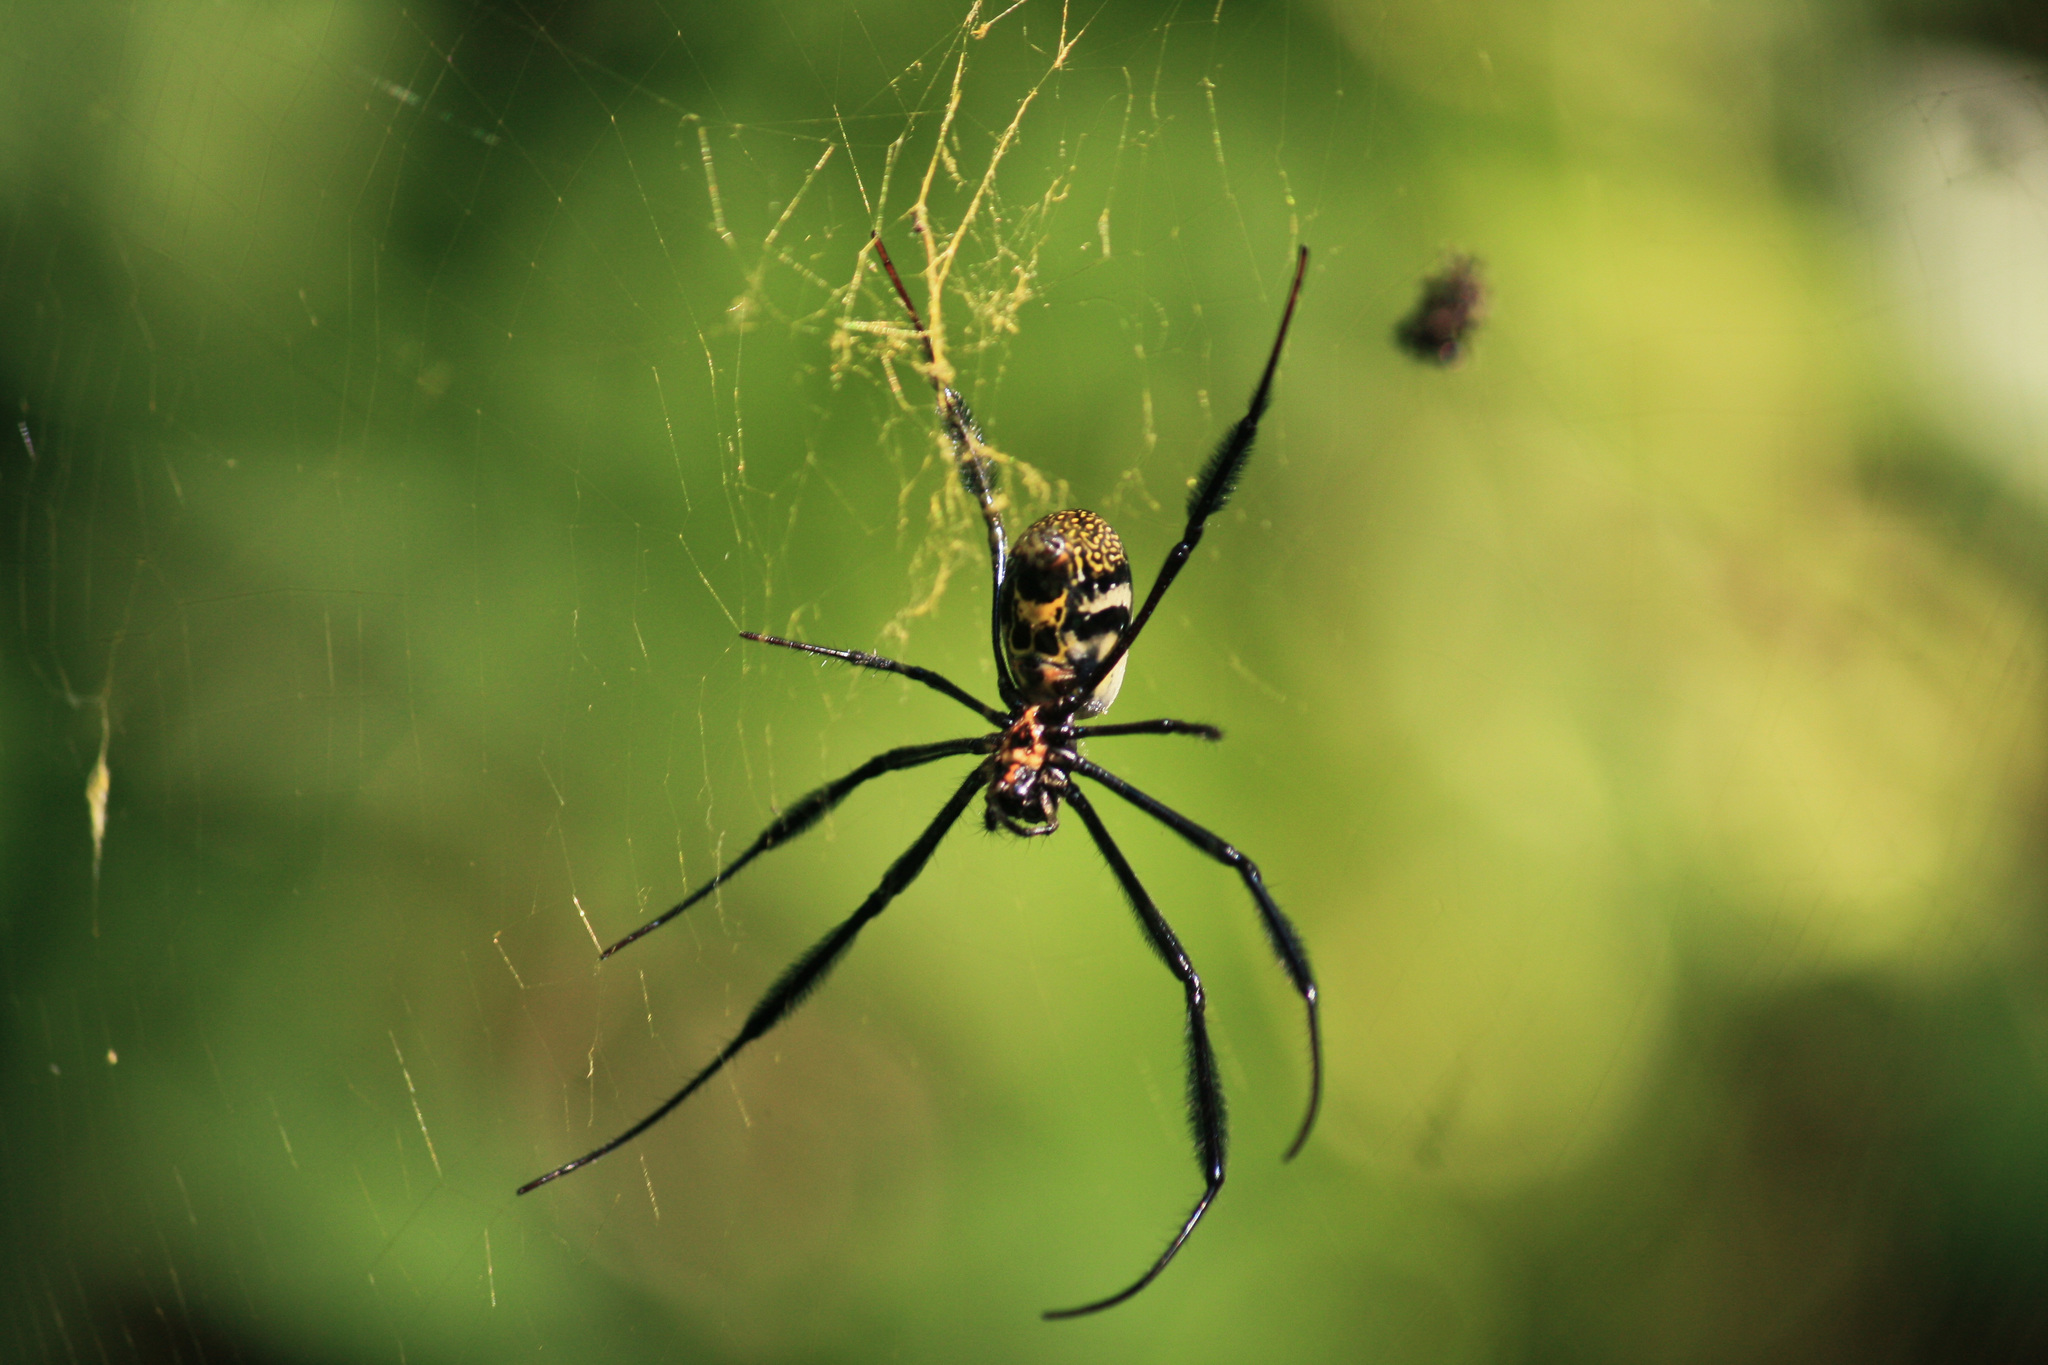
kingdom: Animalia
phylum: Arthropoda
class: Arachnida
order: Araneae
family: Araneidae
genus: Trichonephila
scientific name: Trichonephila fenestrata
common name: Hairy golden orb weaver
